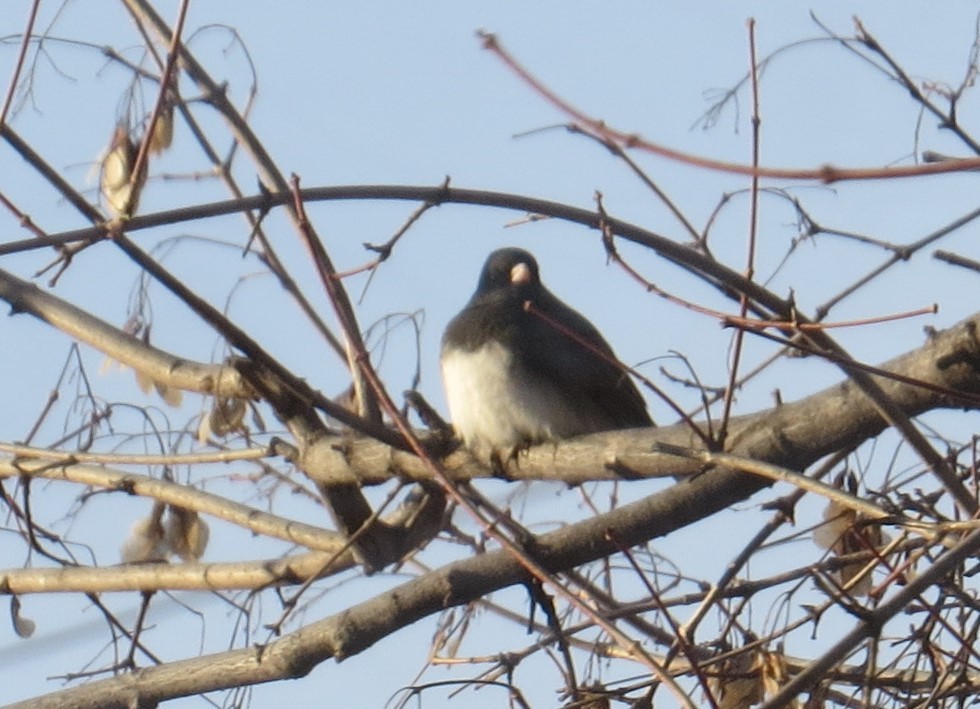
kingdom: Animalia
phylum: Chordata
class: Aves
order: Passeriformes
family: Passerellidae
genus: Junco
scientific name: Junco hyemalis
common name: Dark-eyed junco
